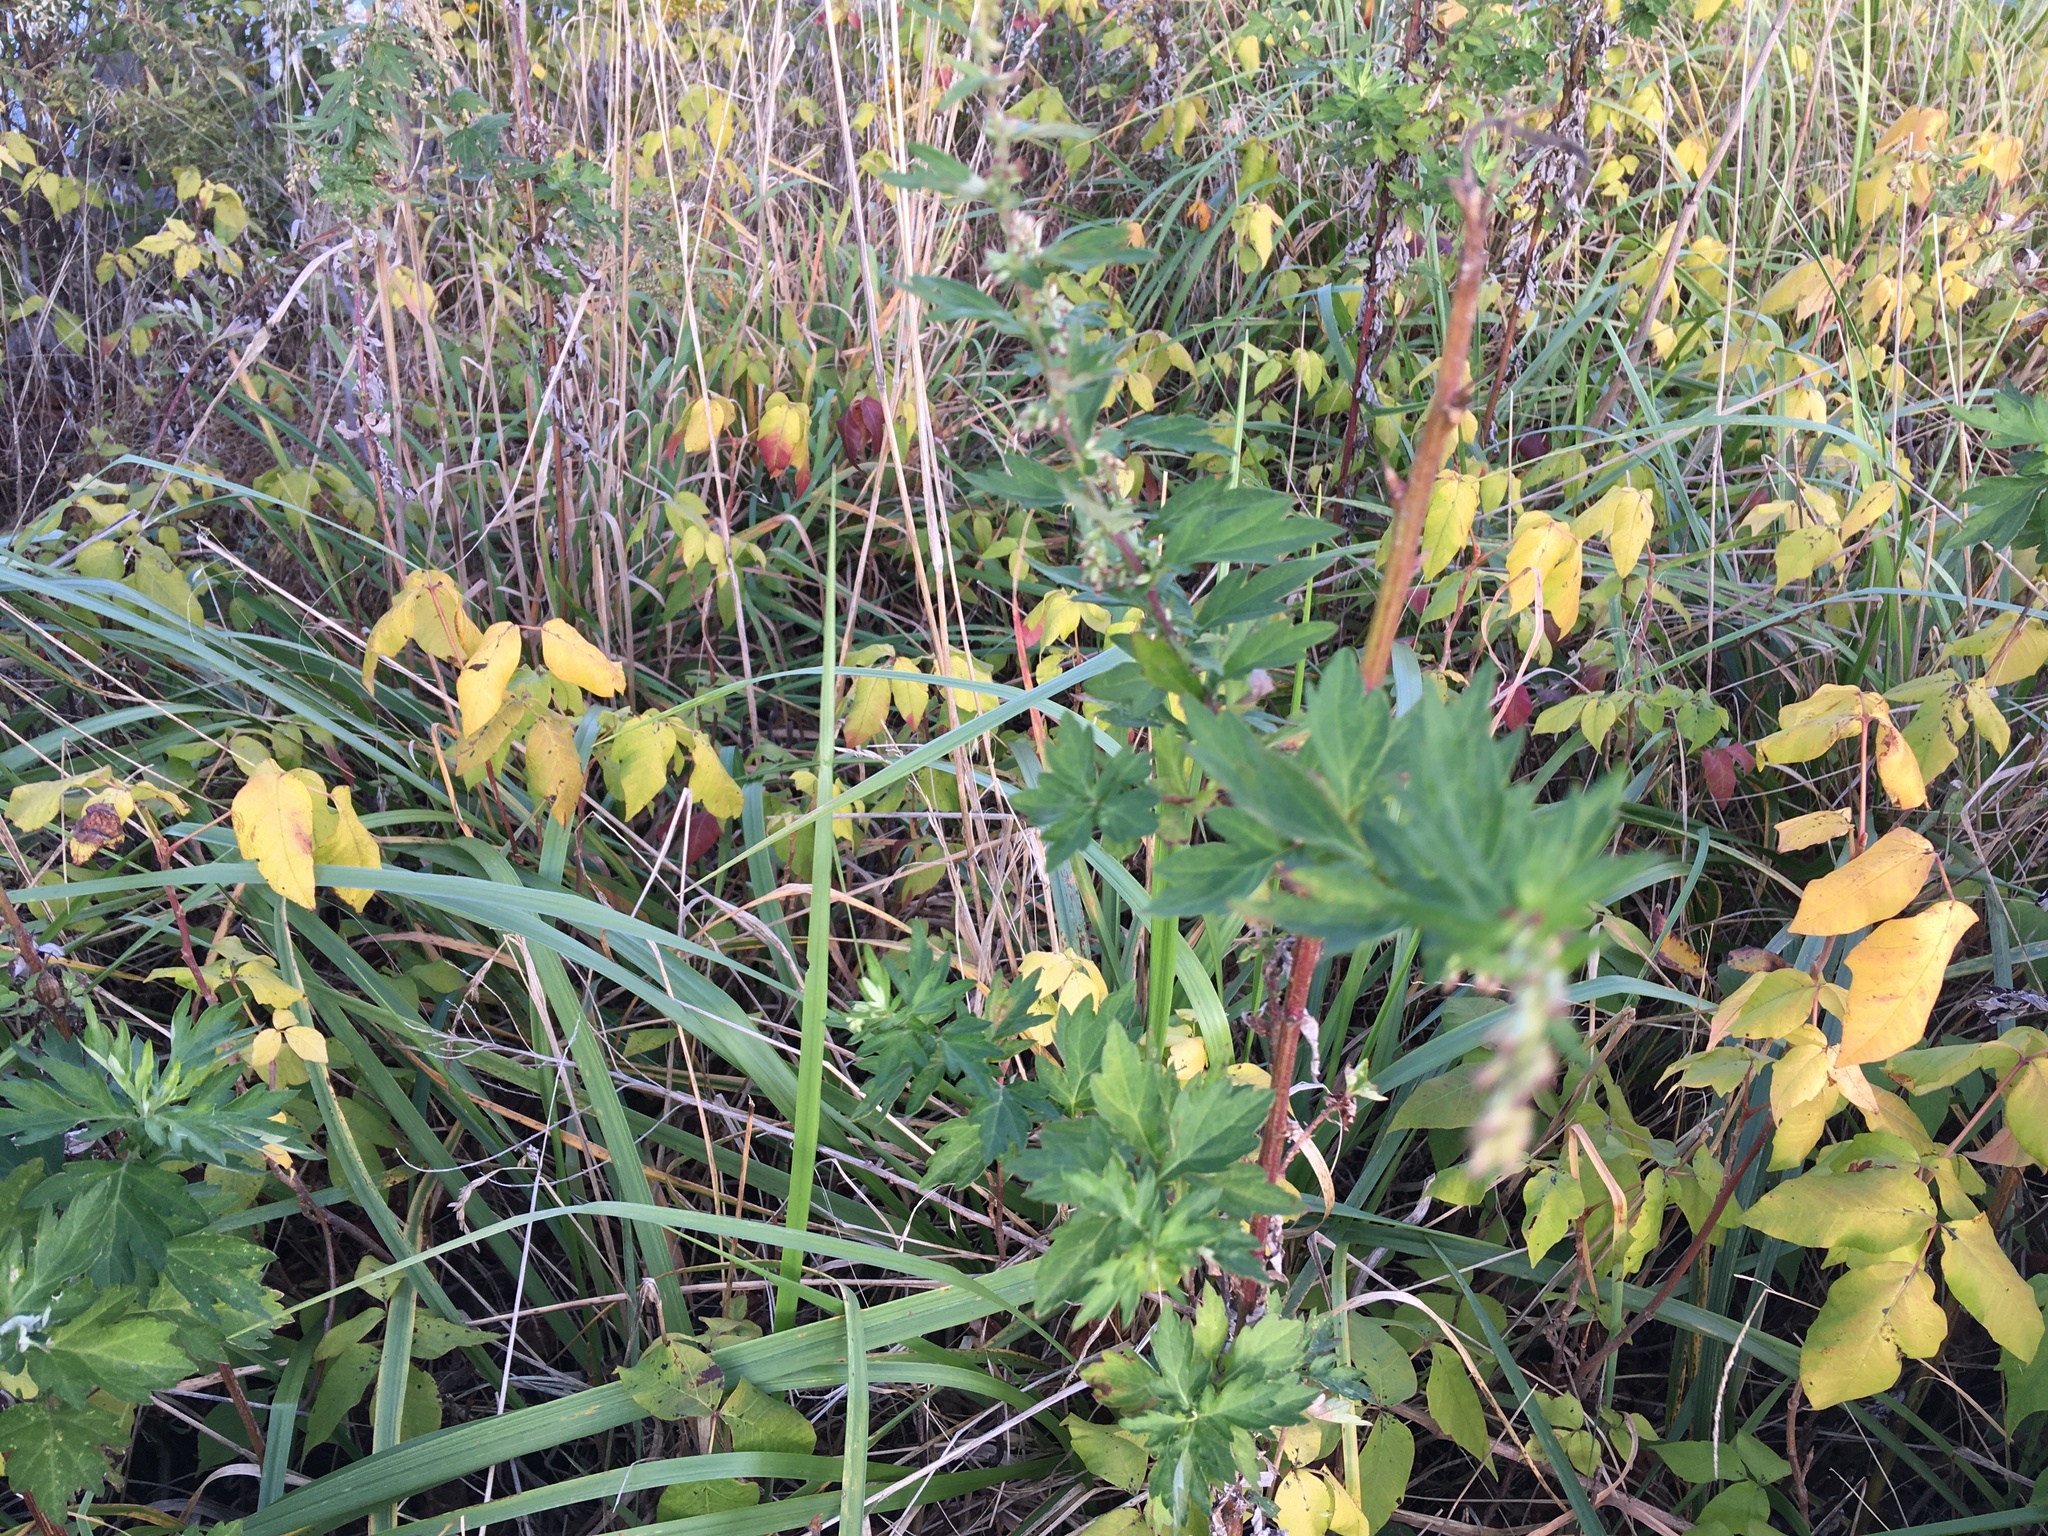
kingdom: Plantae
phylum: Tracheophyta
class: Magnoliopsida
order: Asterales
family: Asteraceae
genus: Artemisia
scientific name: Artemisia vulgaris
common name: Mugwort
